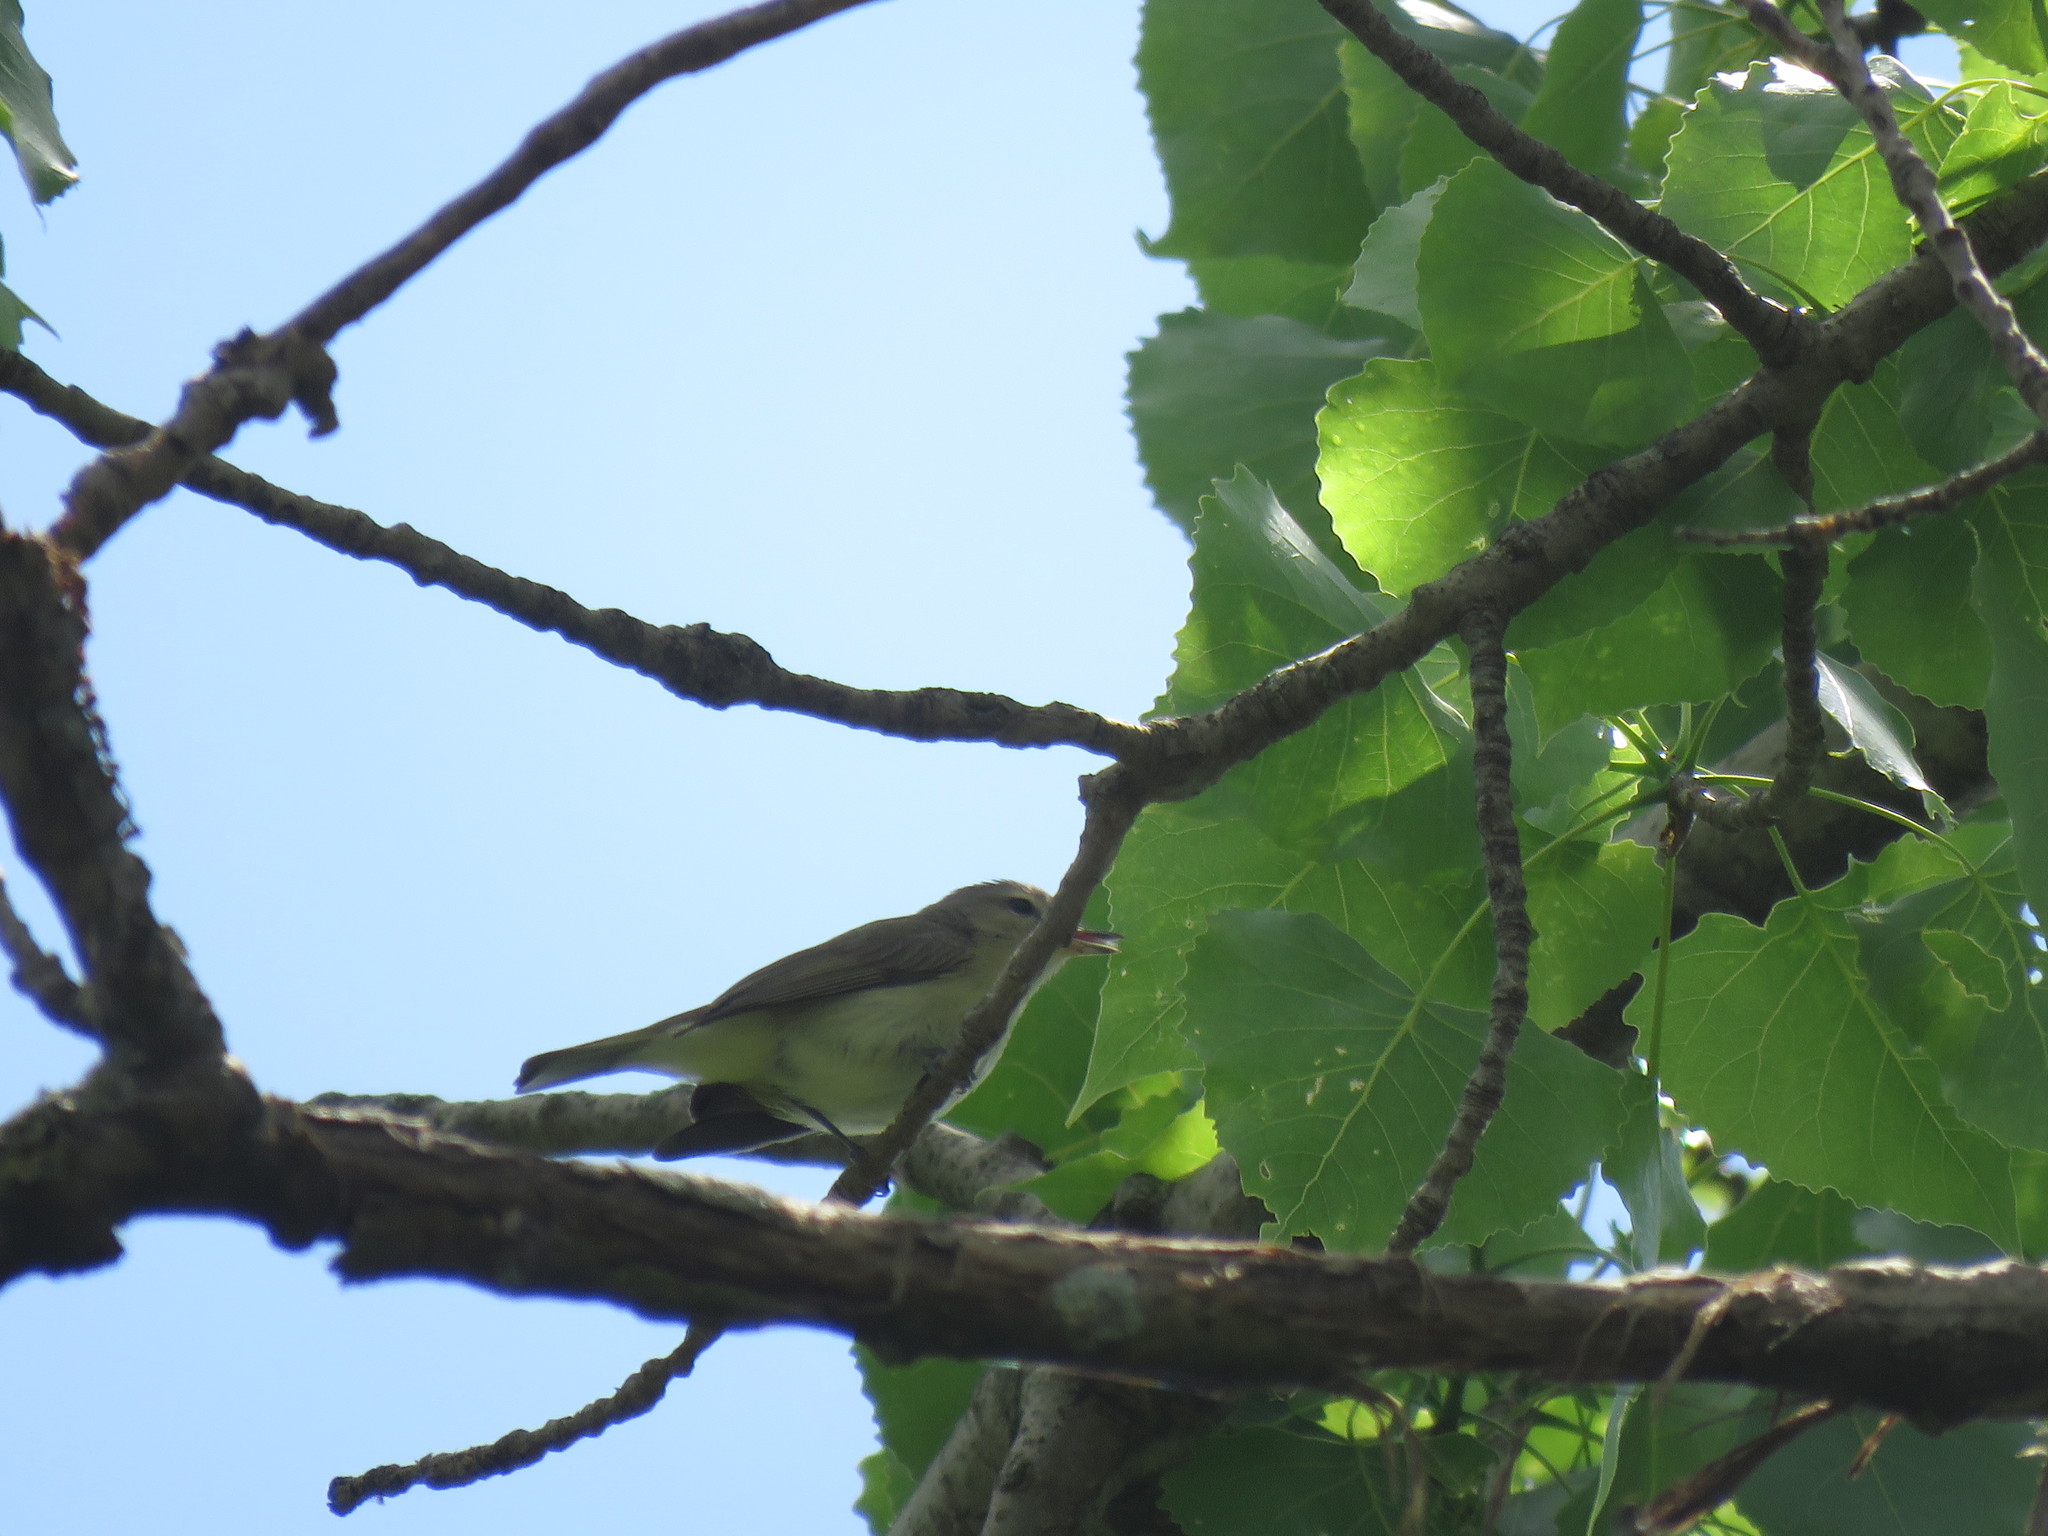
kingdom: Animalia
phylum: Chordata
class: Aves
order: Passeriformes
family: Vireonidae
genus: Vireo
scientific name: Vireo gilvus
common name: Warbling vireo
